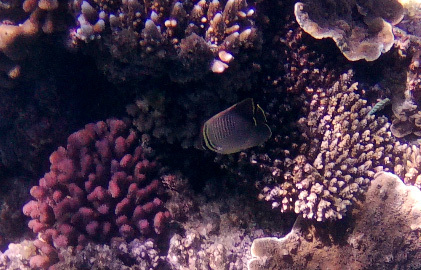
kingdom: Animalia
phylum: Chordata
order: Perciformes
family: Chaetodontidae
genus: Chaetodon
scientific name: Chaetodon baronessa
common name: Triangular butterflyfish
